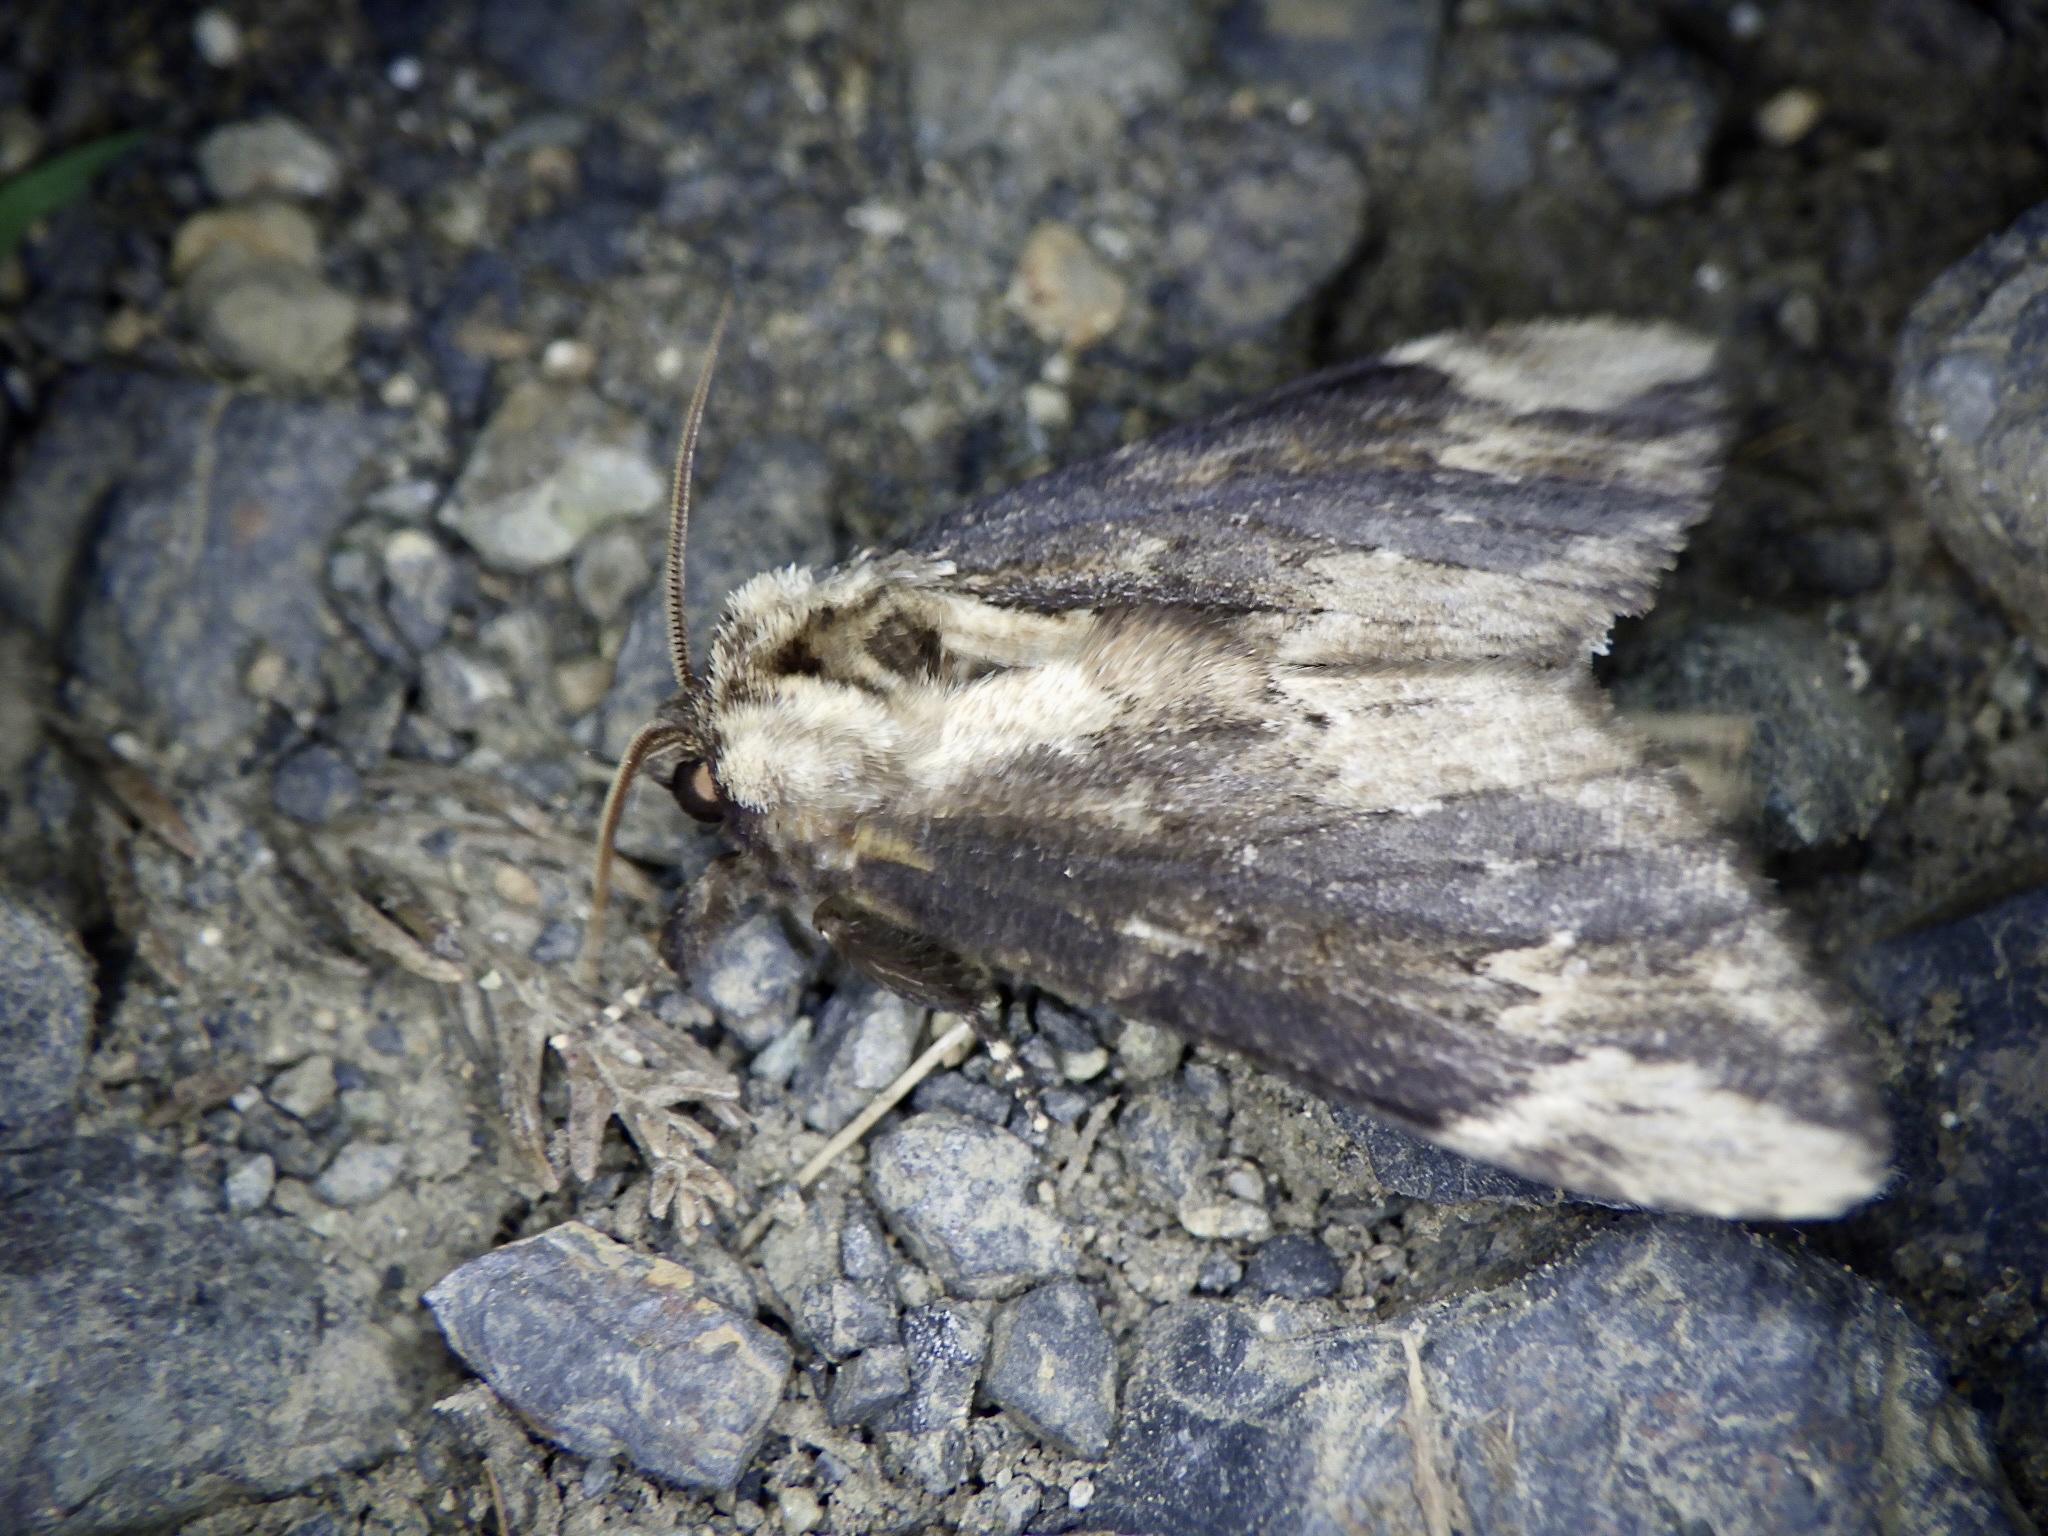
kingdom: Animalia
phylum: Arthropoda
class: Insecta
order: Lepidoptera
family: Notodontidae
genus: Hiradonta
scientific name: Hiradonta takaonis
